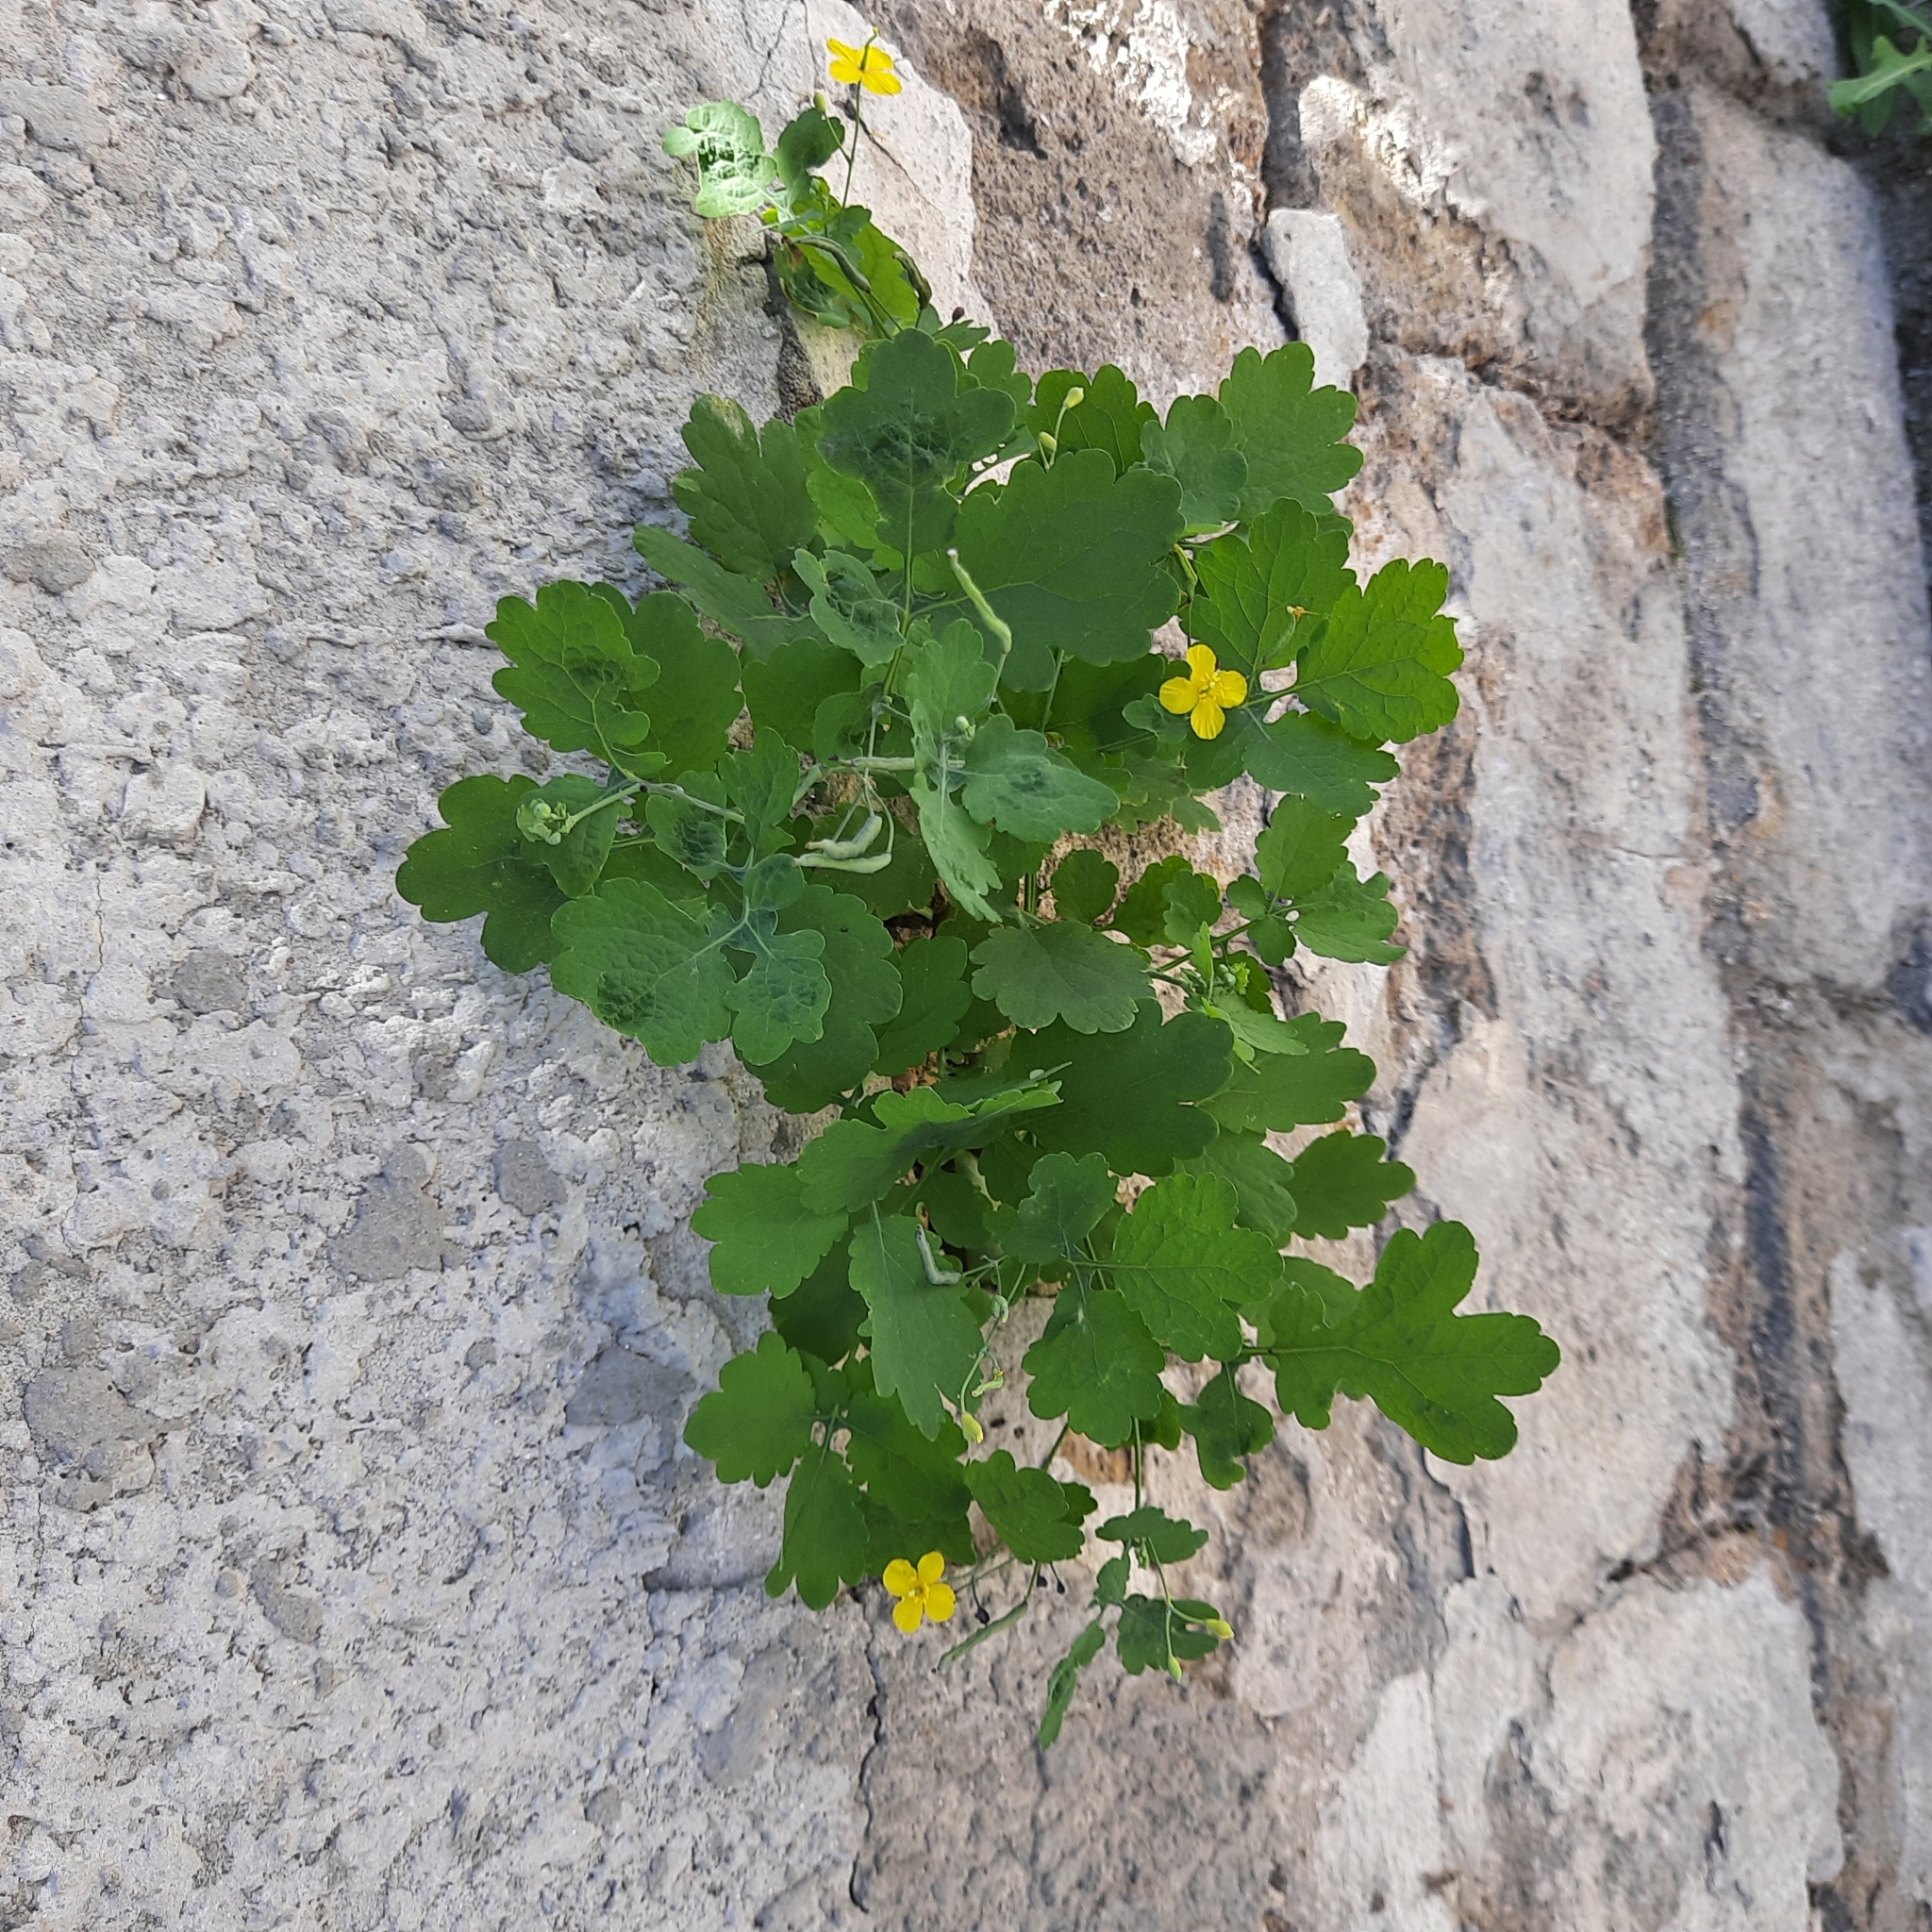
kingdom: Plantae
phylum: Tracheophyta
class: Magnoliopsida
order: Ranunculales
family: Papaveraceae
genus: Chelidonium
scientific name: Chelidonium majus
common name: Greater celandine
